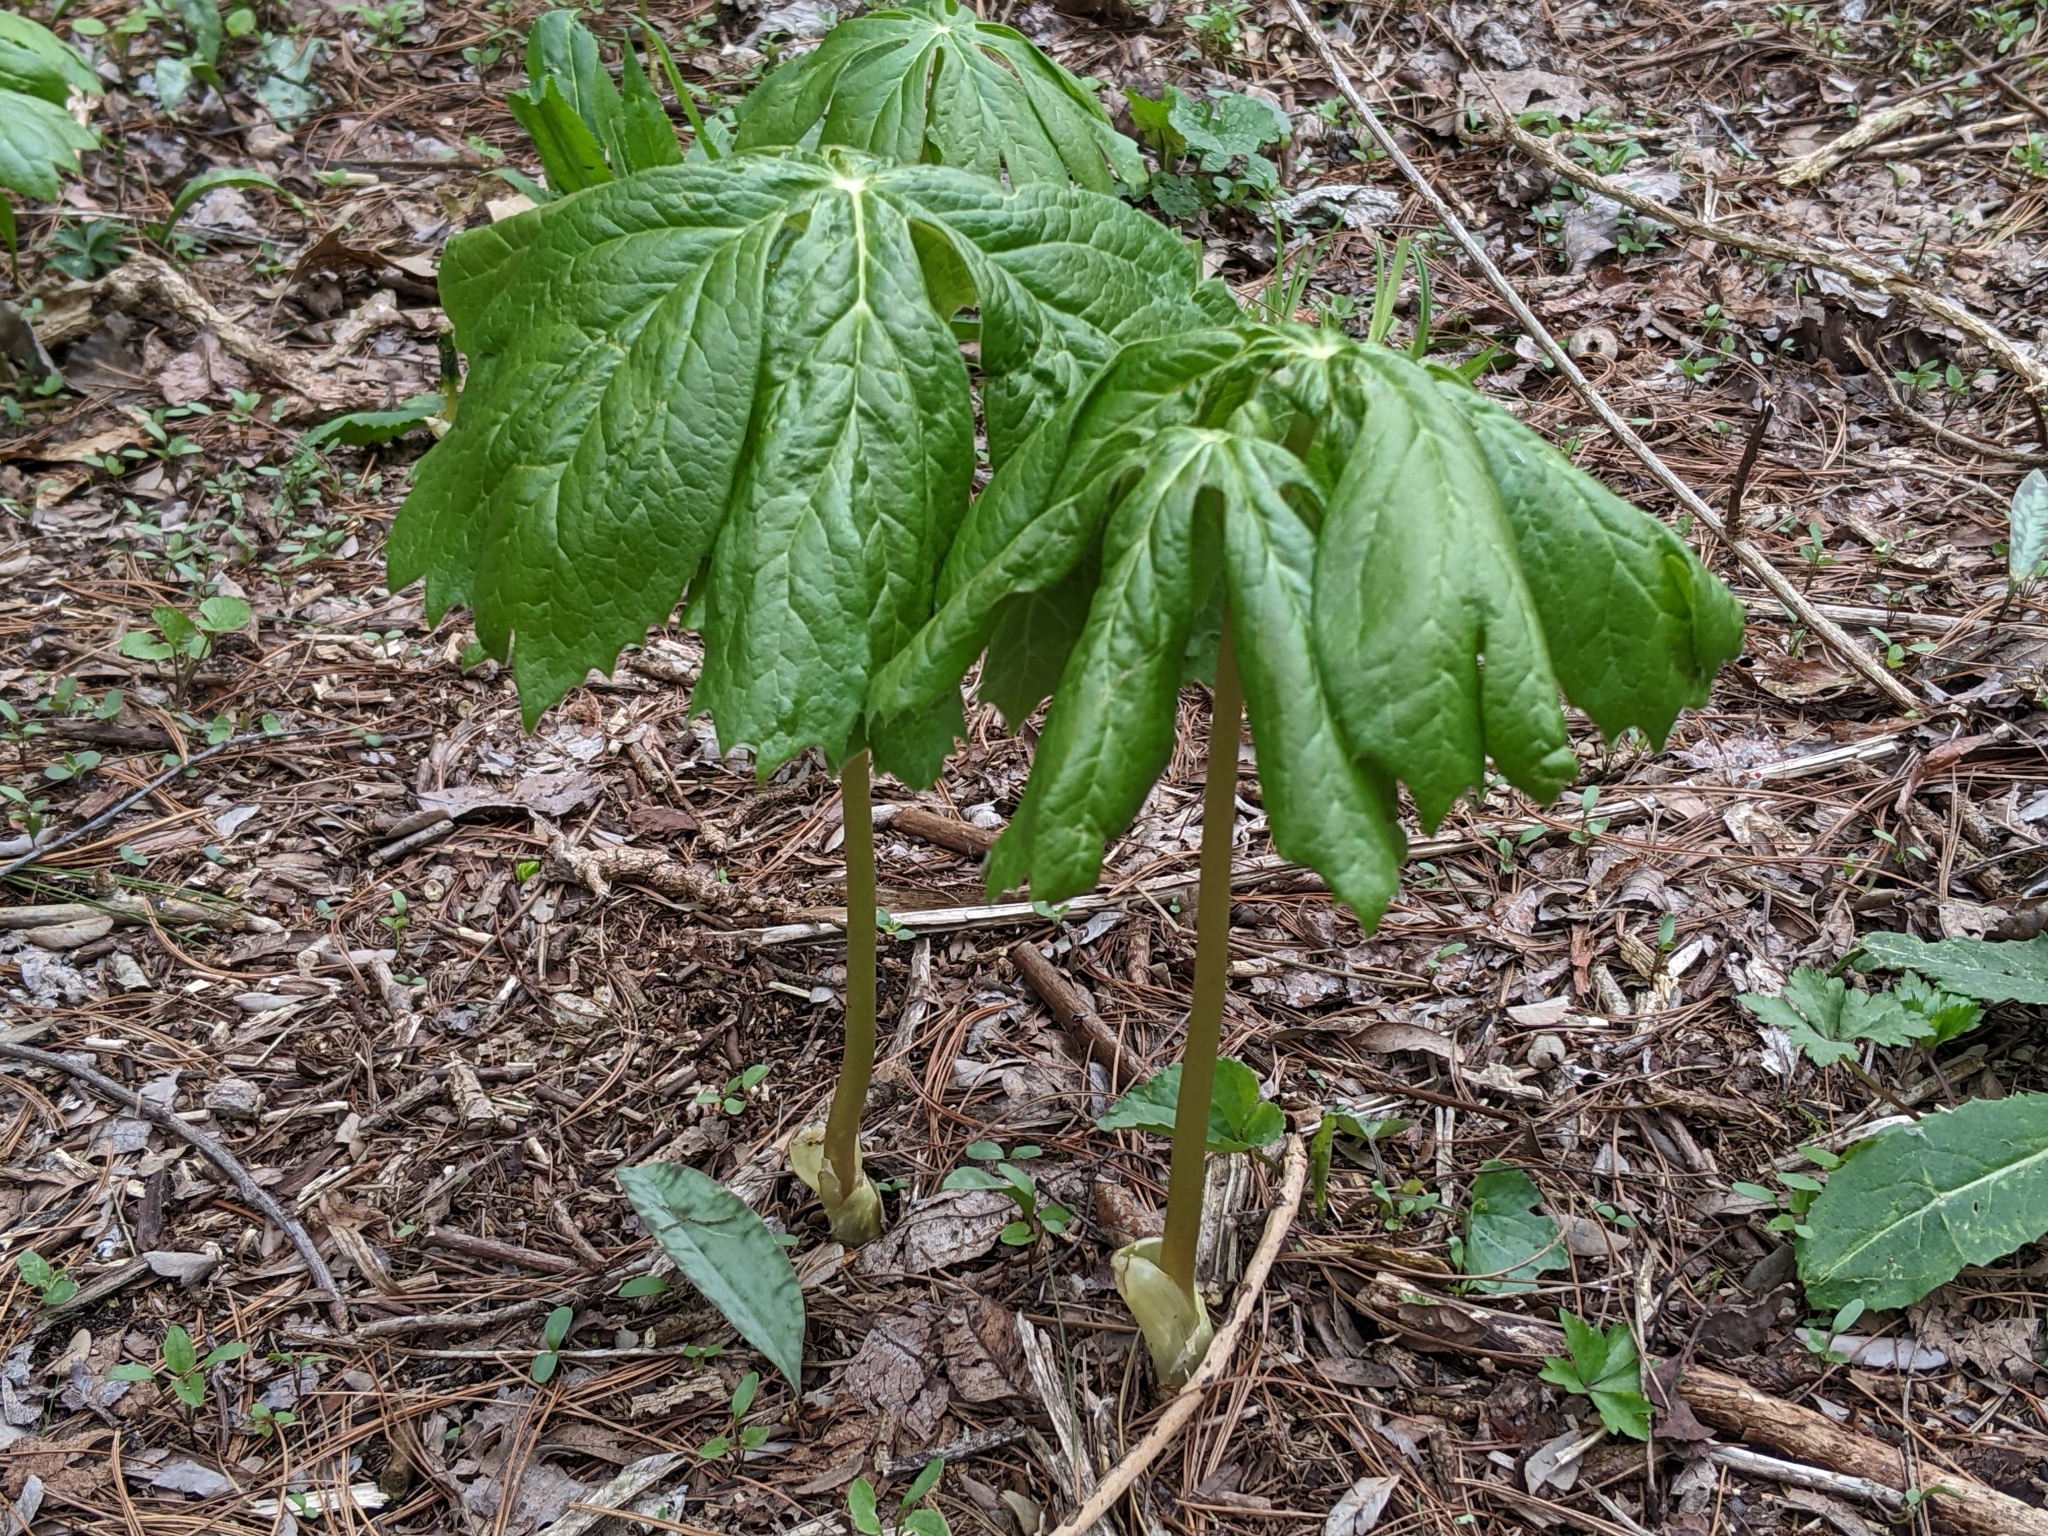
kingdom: Plantae
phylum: Tracheophyta
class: Magnoliopsida
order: Ranunculales
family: Berberidaceae
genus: Podophyllum
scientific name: Podophyllum peltatum
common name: Wild mandrake
